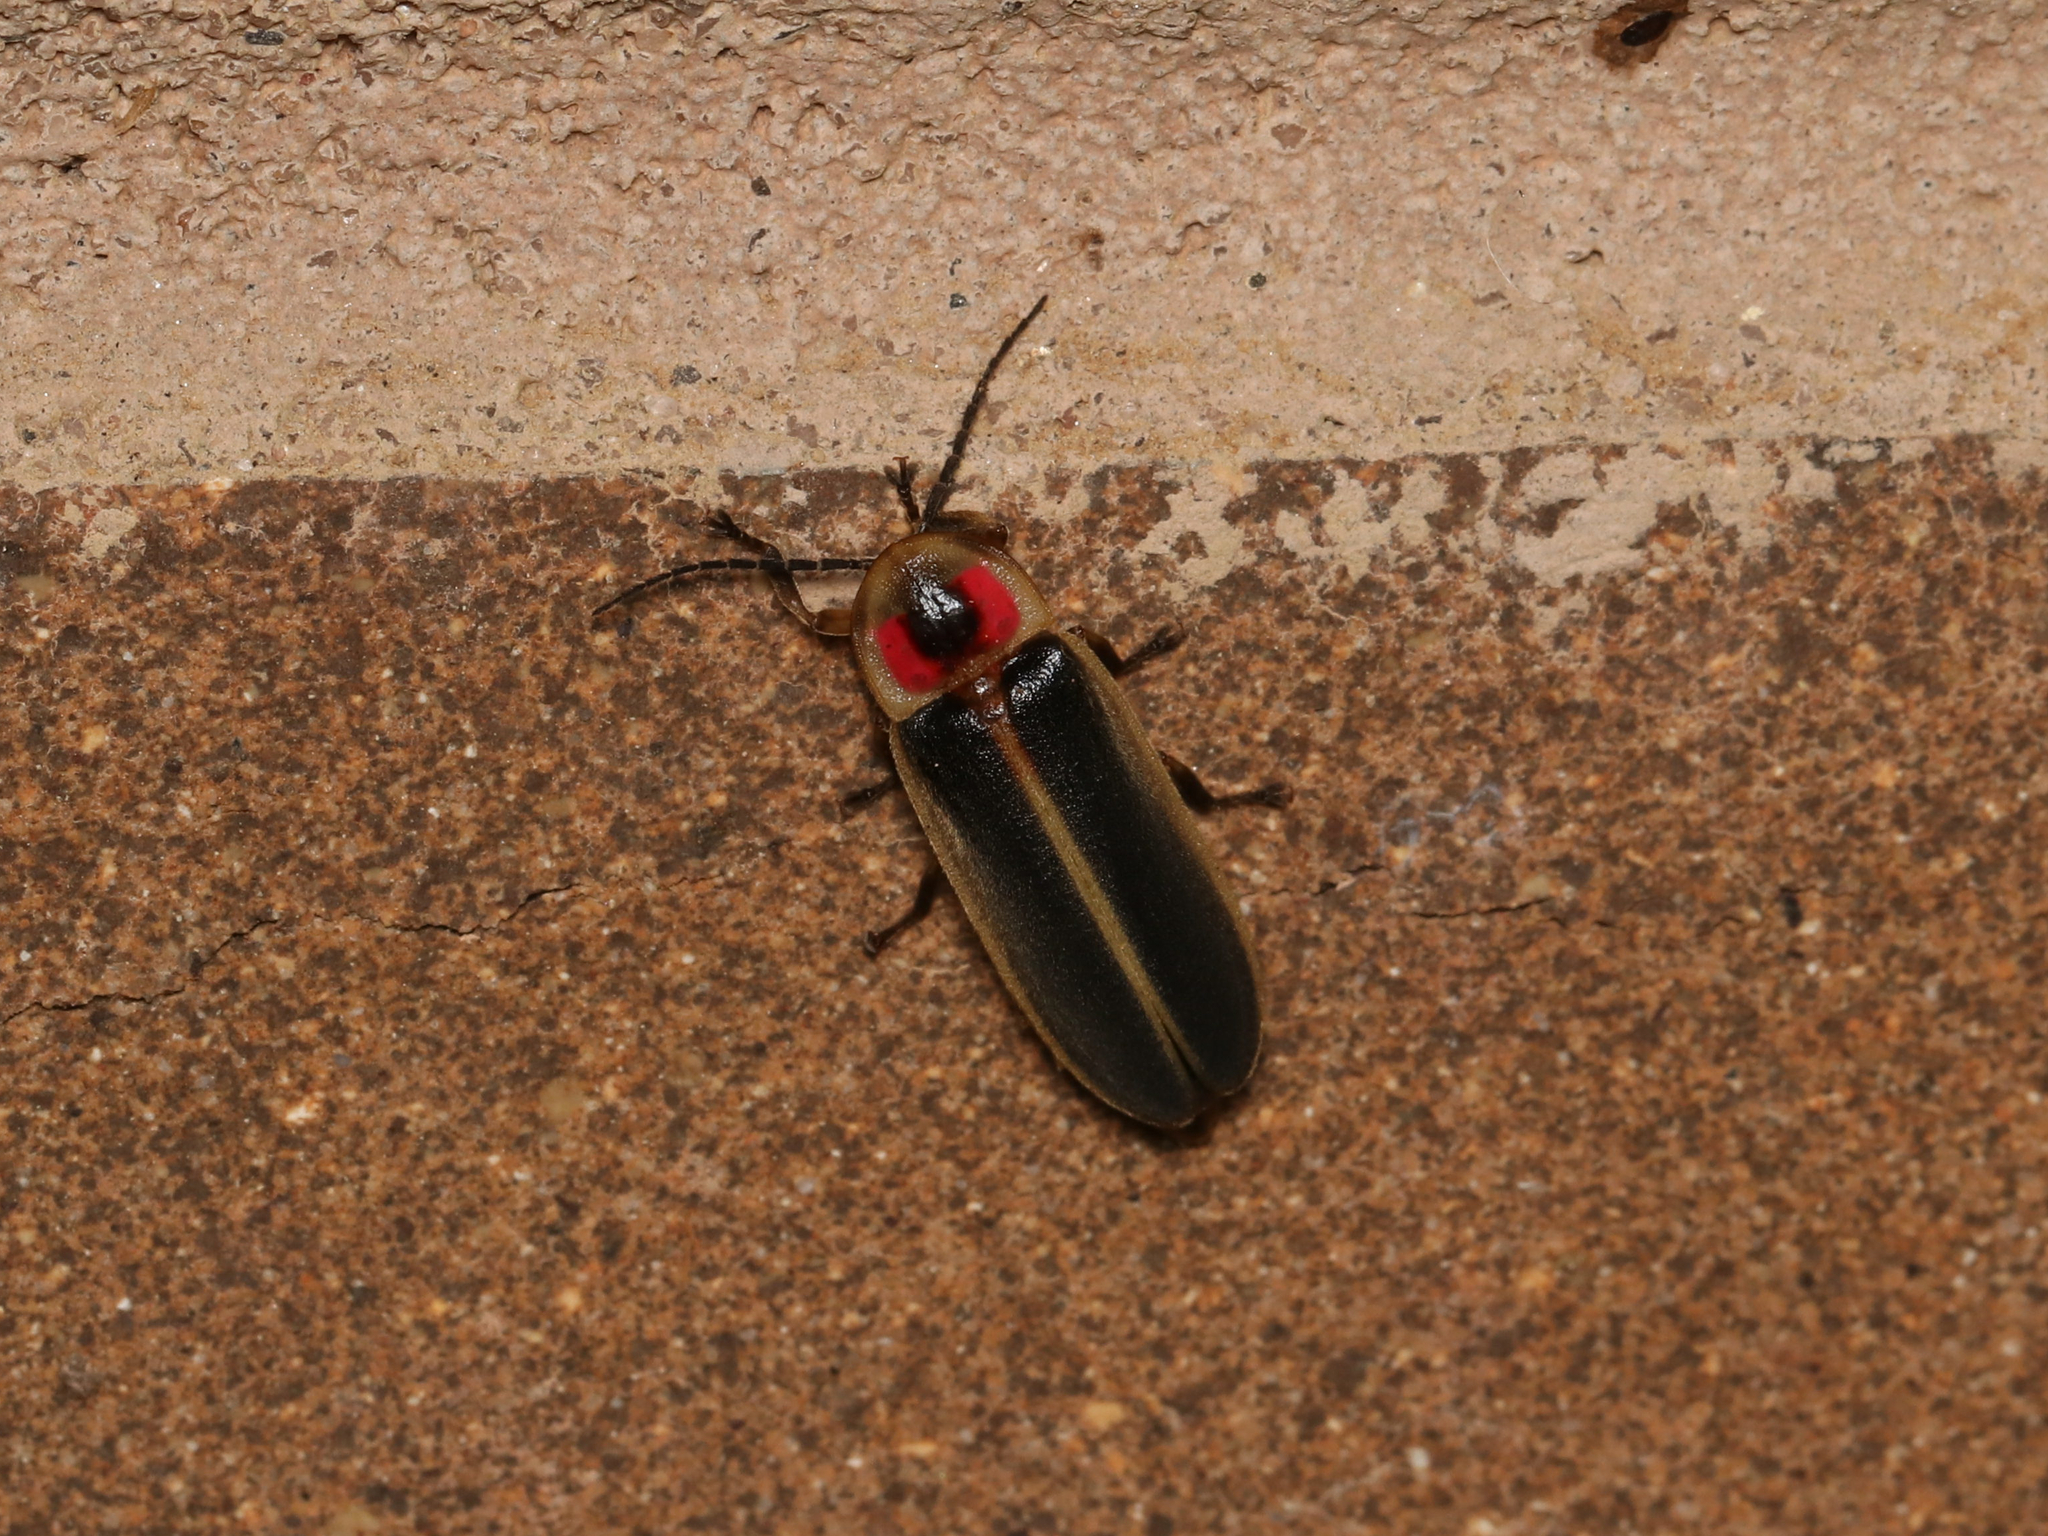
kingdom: Animalia
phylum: Arthropoda
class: Insecta
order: Coleoptera
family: Lampyridae
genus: Photinus
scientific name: Photinus pyralis
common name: Big dipper firefly
